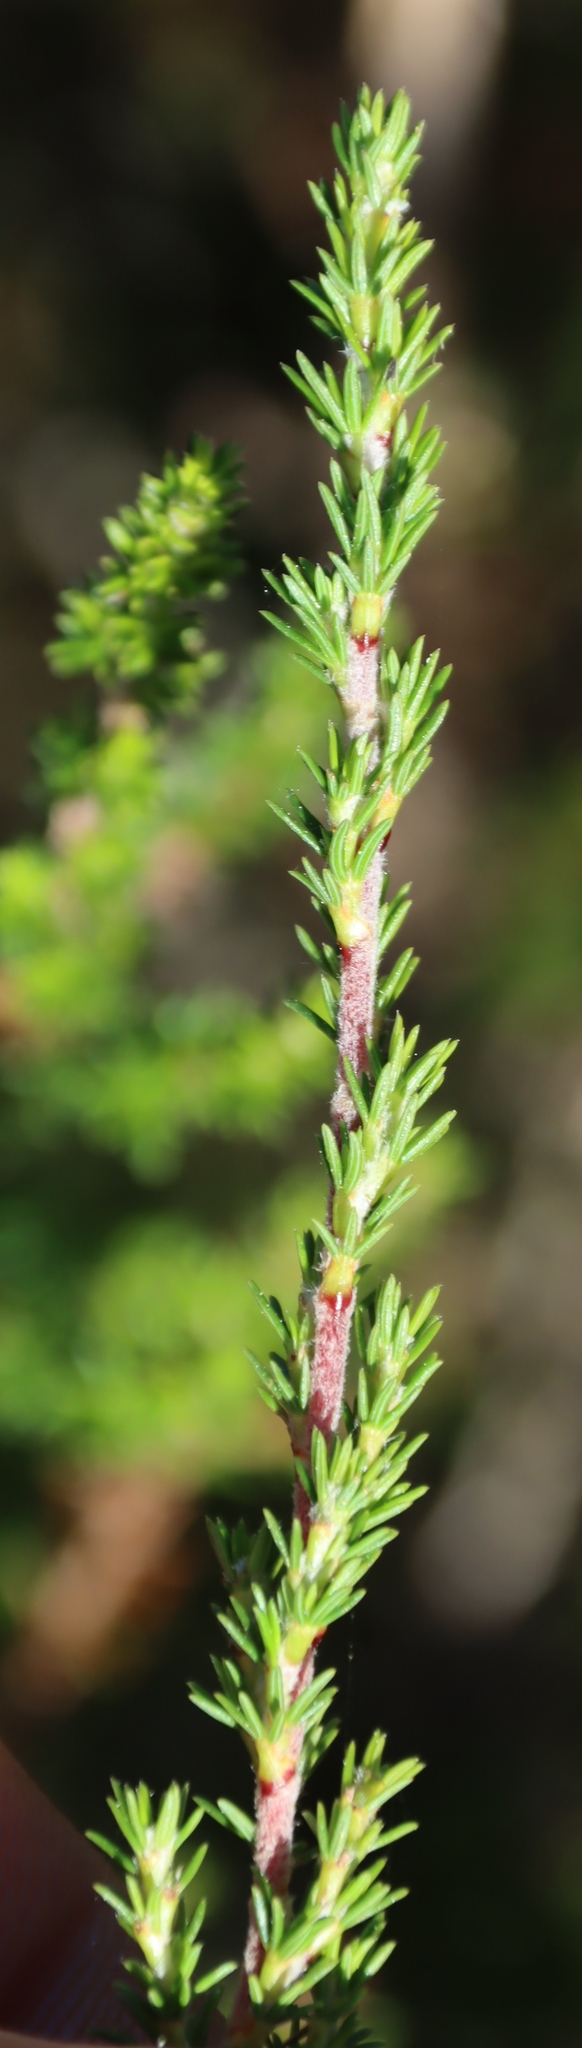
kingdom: Plantae
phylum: Tracheophyta
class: Magnoliopsida
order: Rosales
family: Rosaceae
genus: Cliffortia
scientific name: Cliffortia linearifolia
